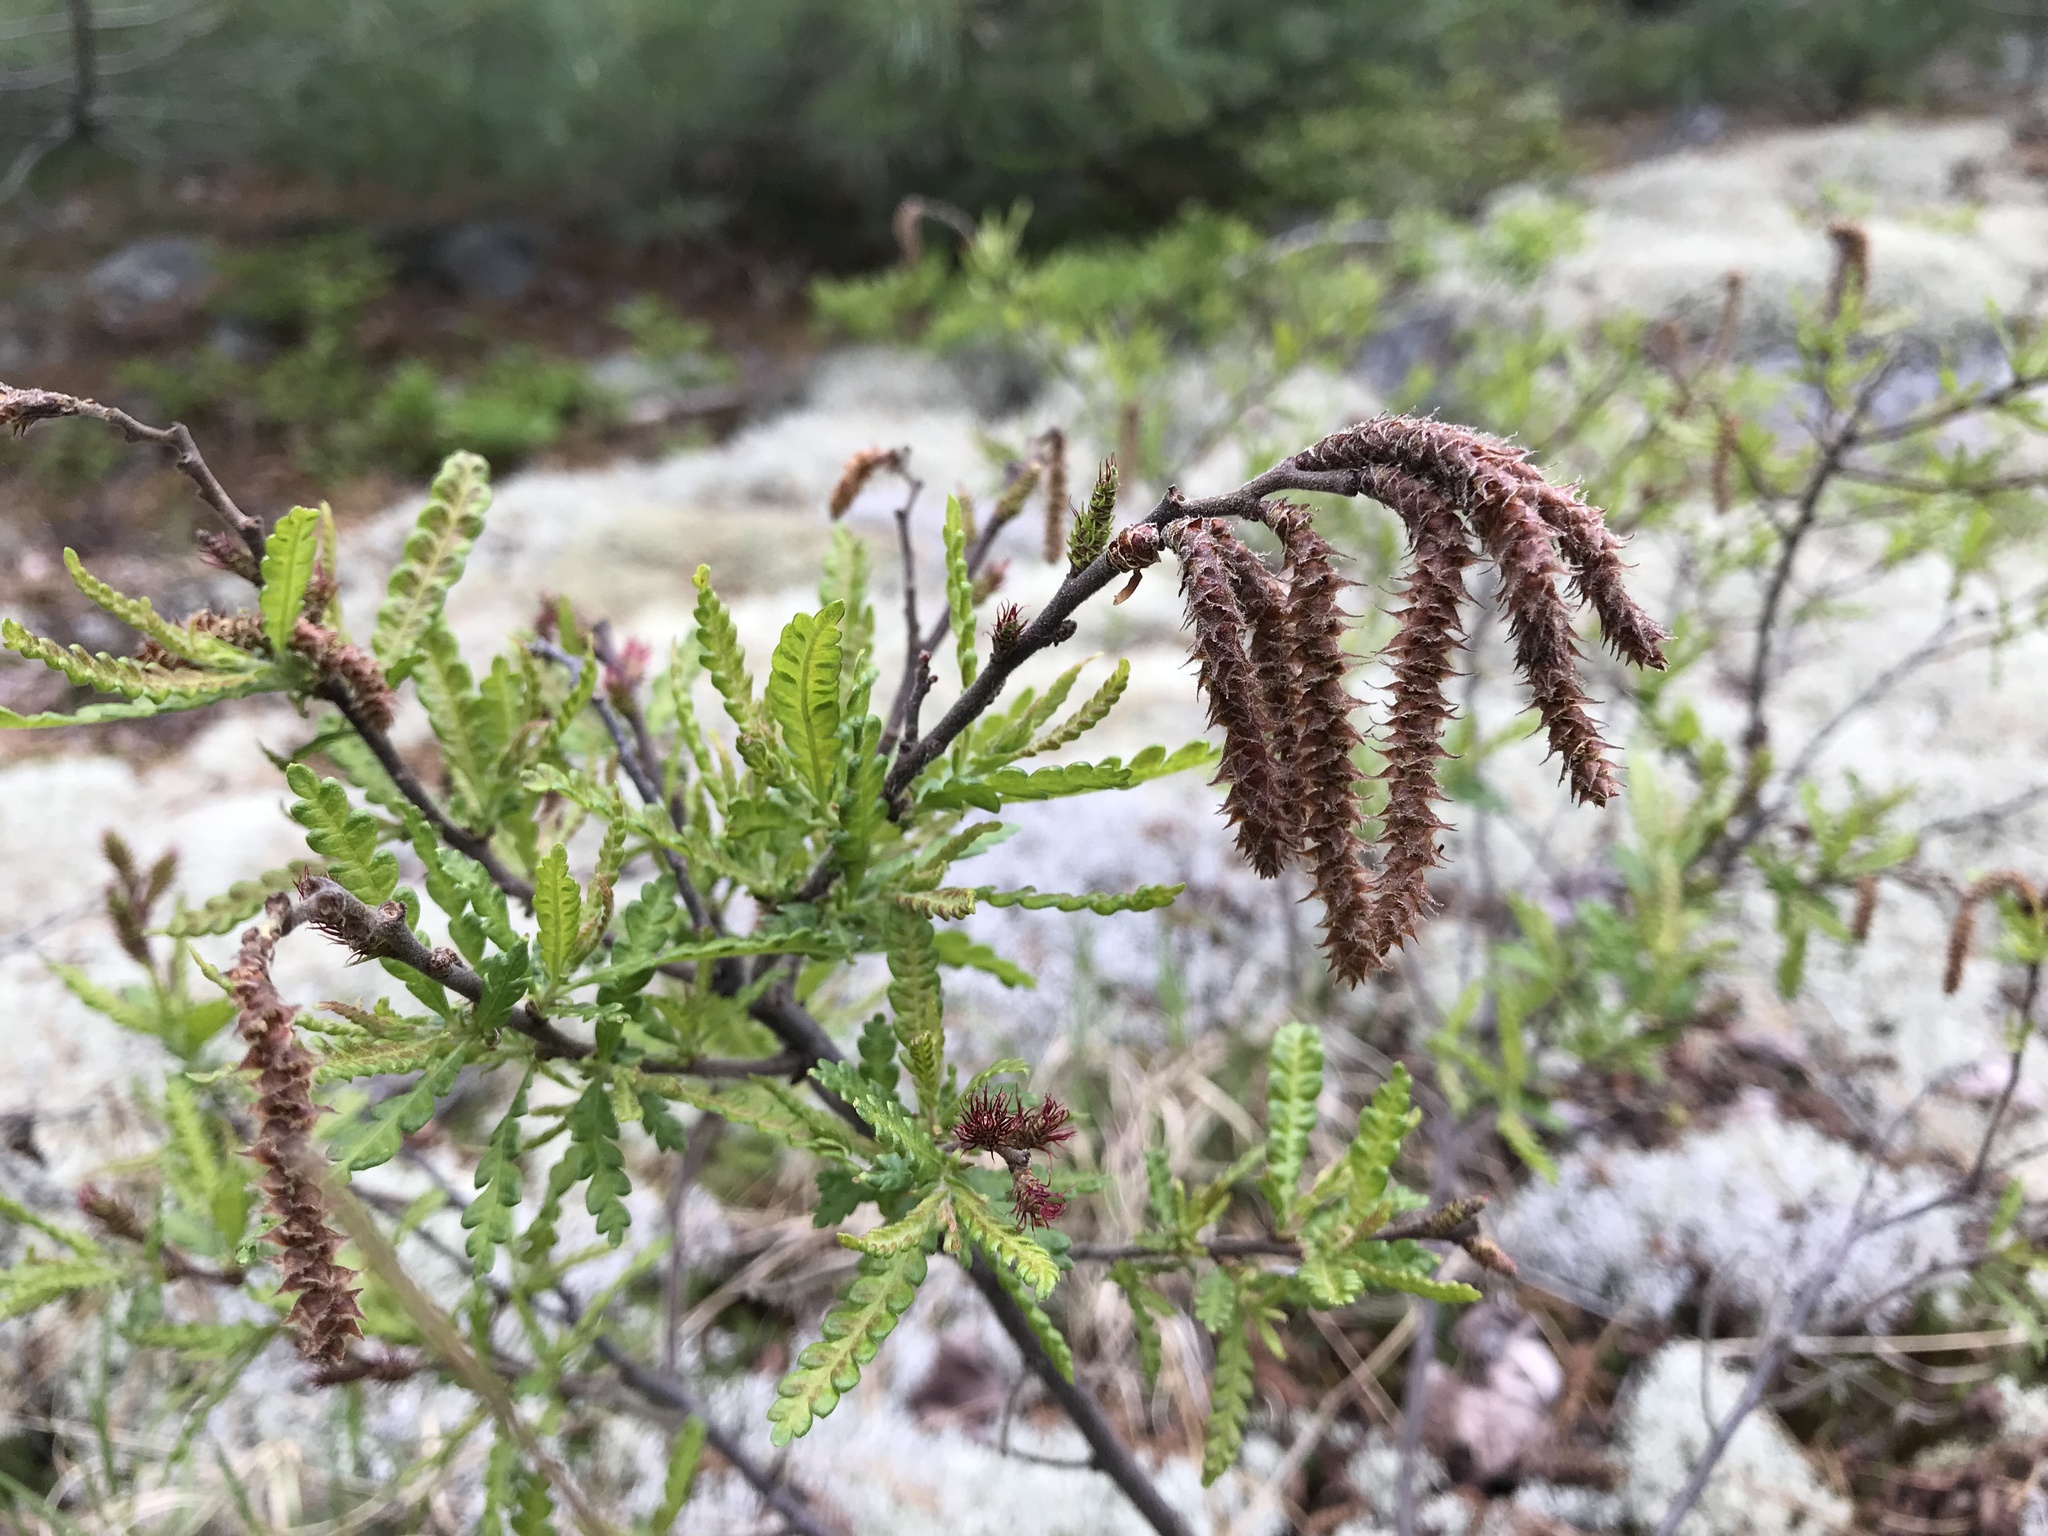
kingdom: Plantae
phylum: Tracheophyta
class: Magnoliopsida
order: Fagales
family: Myricaceae
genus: Comptonia
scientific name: Comptonia peregrina
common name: Sweet-fern
